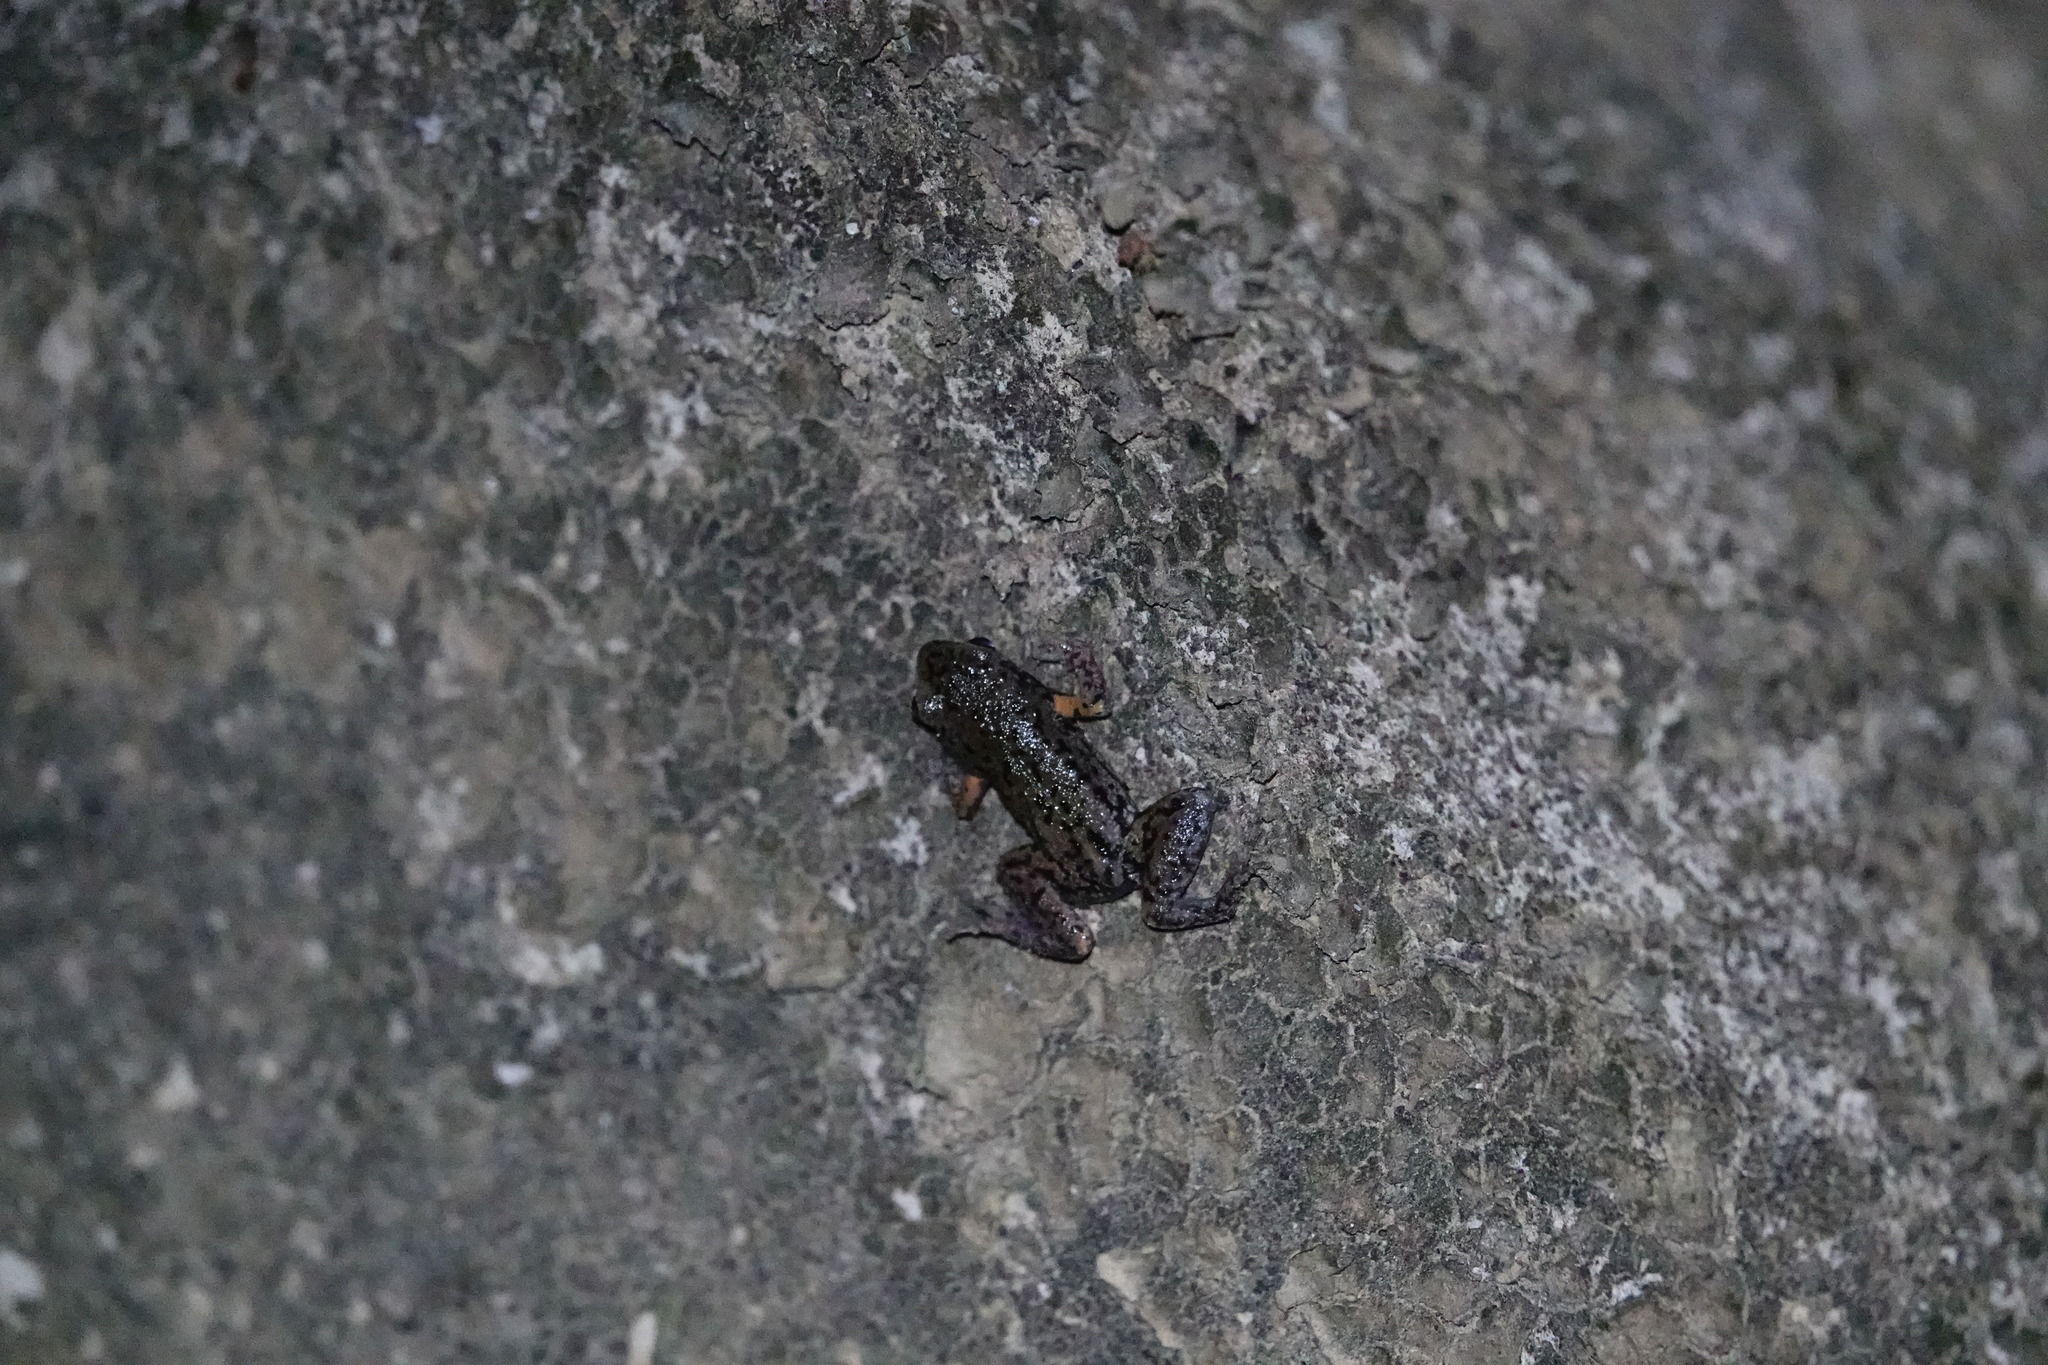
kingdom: Animalia
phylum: Chordata
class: Amphibia
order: Anura
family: Microhylidae
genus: Micryletta
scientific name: Micryletta steinegeri
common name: Stejneger's paddy frog
